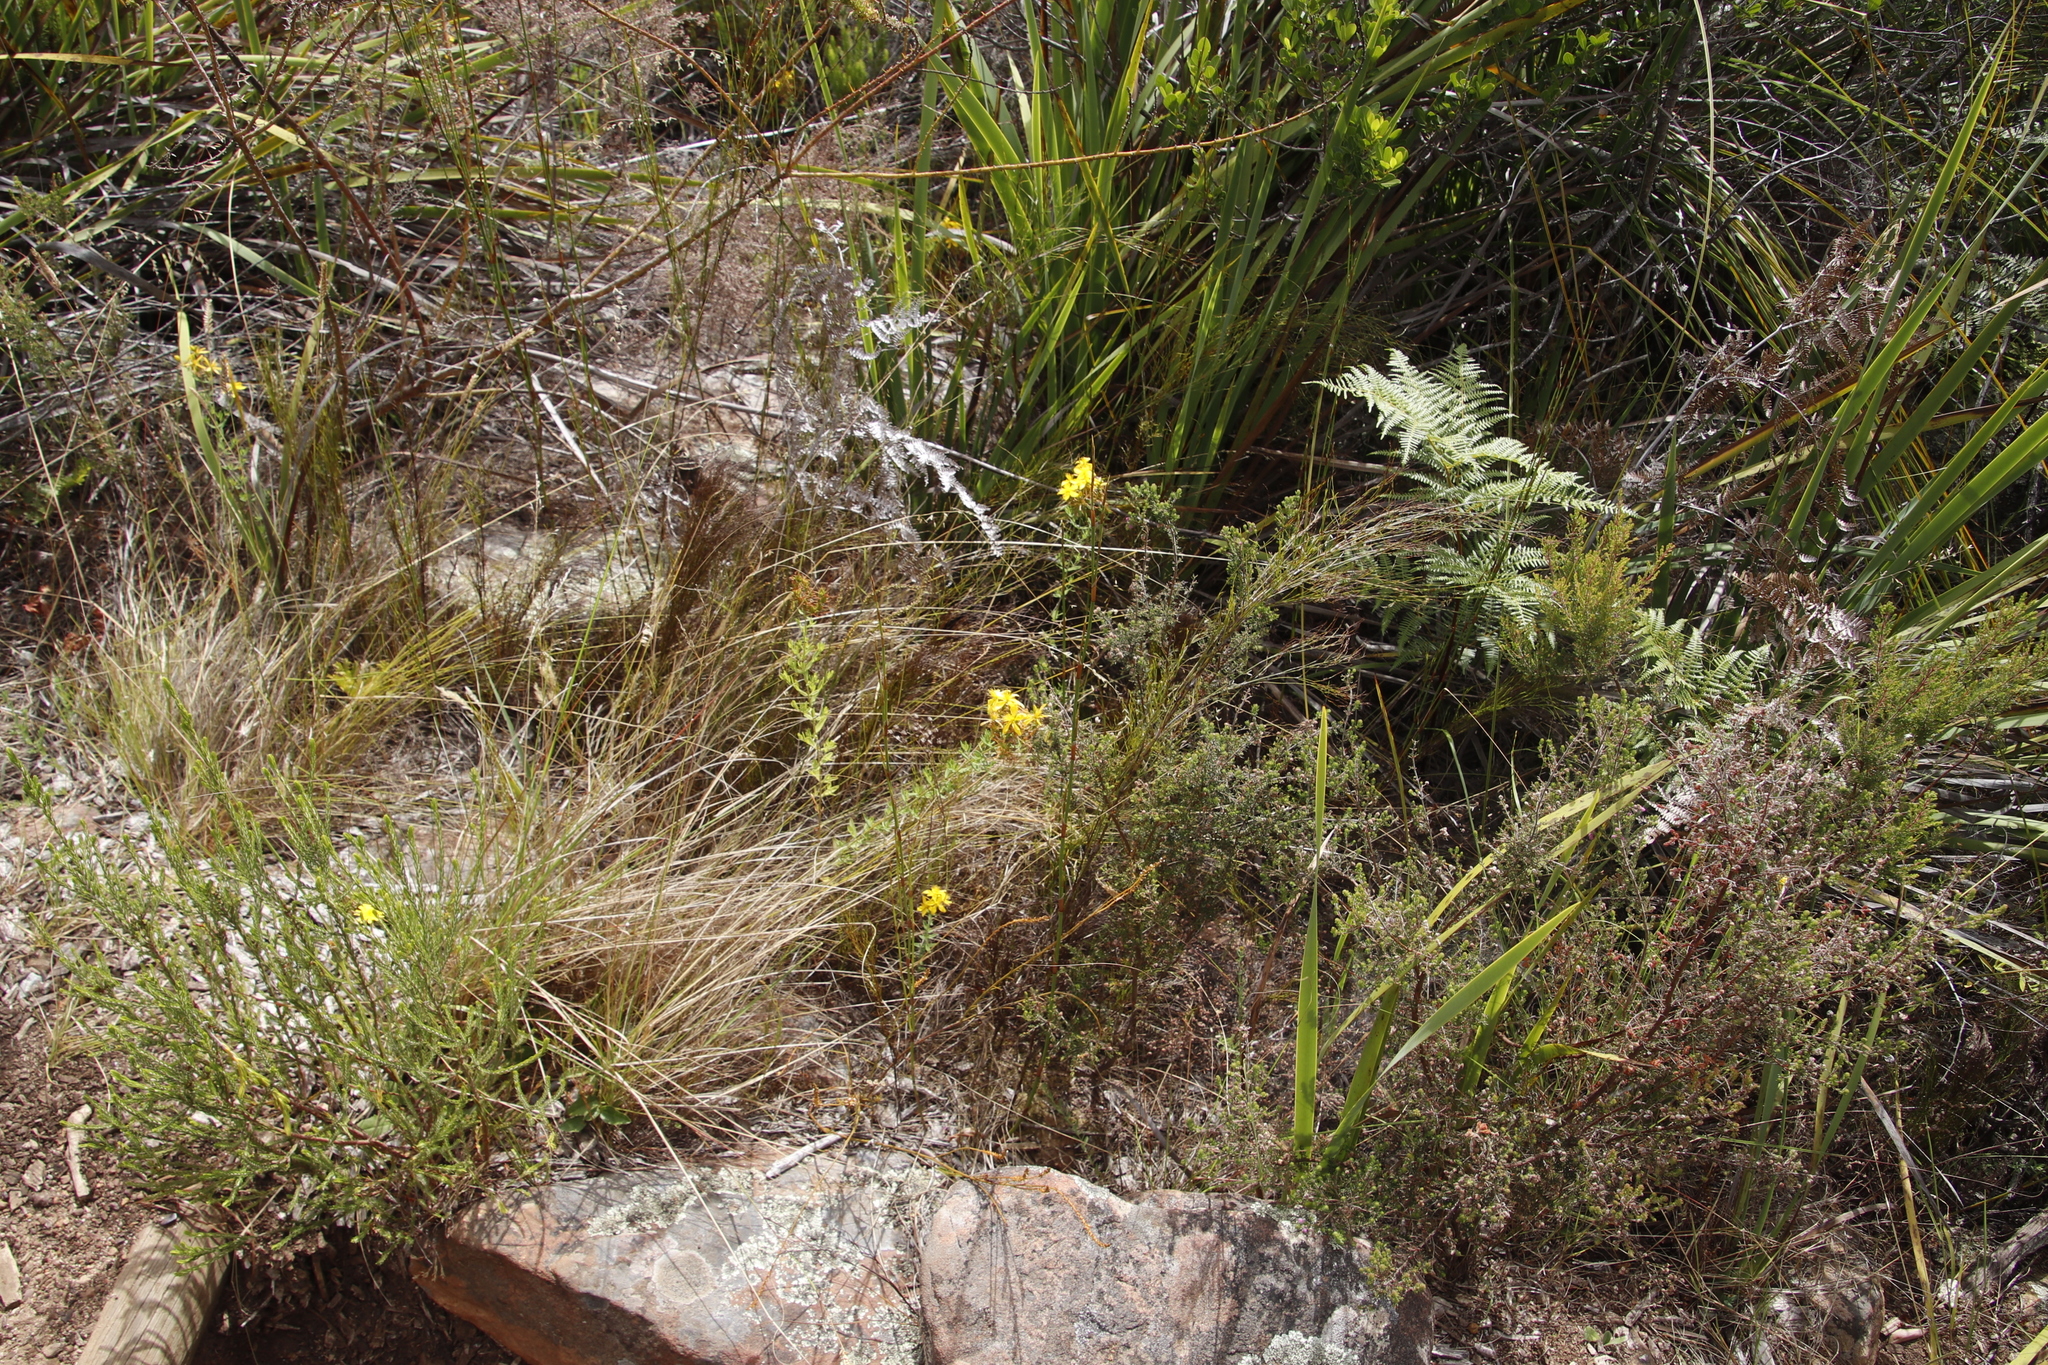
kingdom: Plantae
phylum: Tracheophyta
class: Magnoliopsida
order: Malpighiales
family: Hypericaceae
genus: Hypericum
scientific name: Hypericum perforatum
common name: Common st. johnswort
